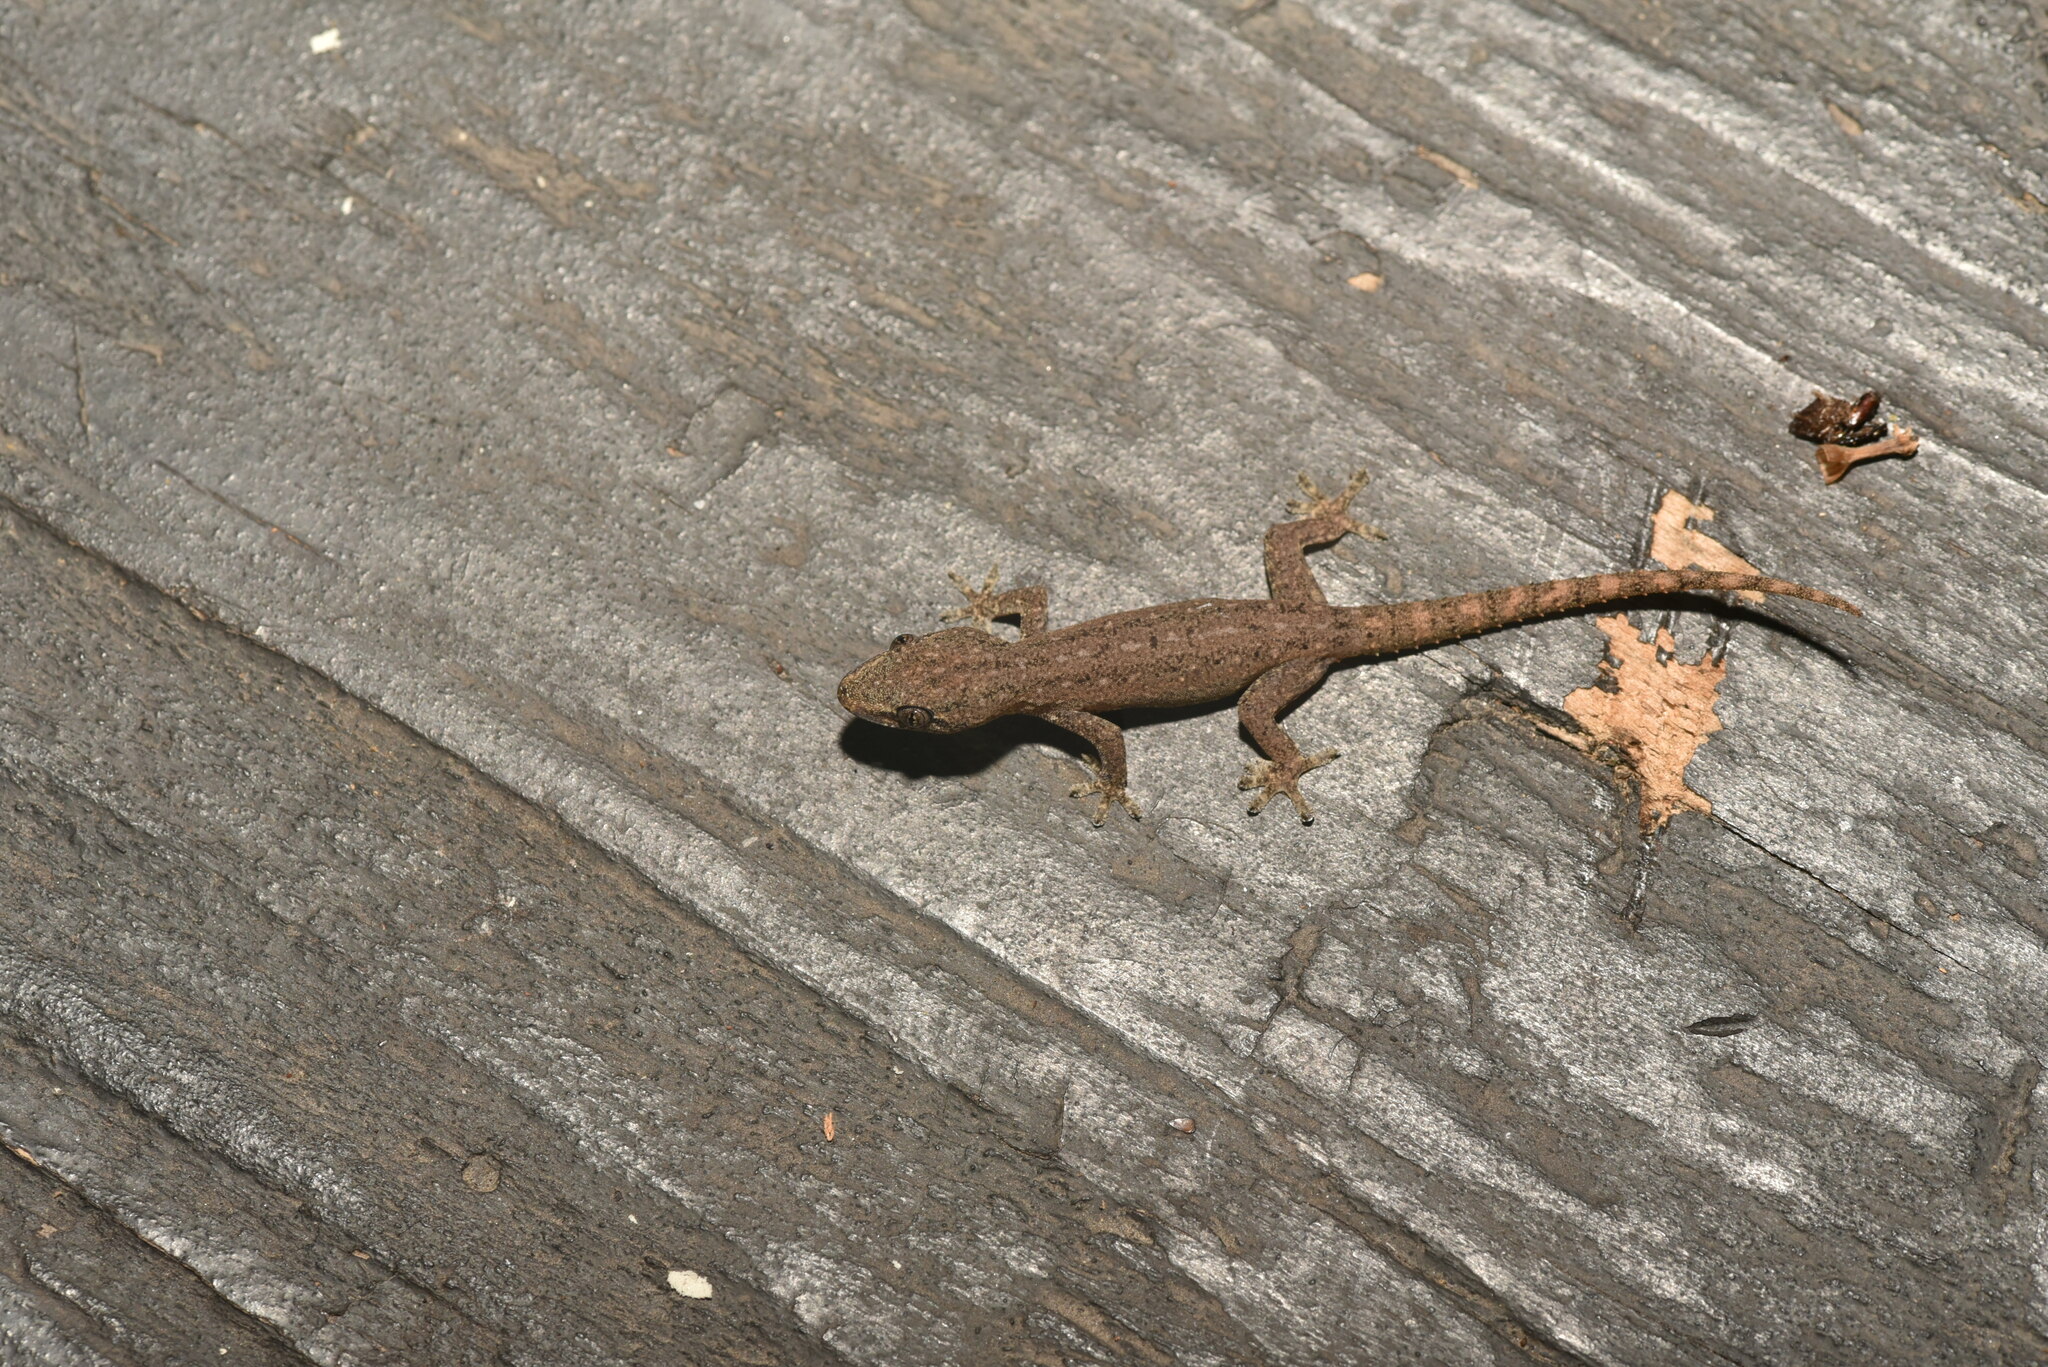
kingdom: Animalia
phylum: Chordata
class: Squamata
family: Gekkonidae
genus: Hemidactylus
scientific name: Hemidactylus frenatus
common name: Common house gecko
